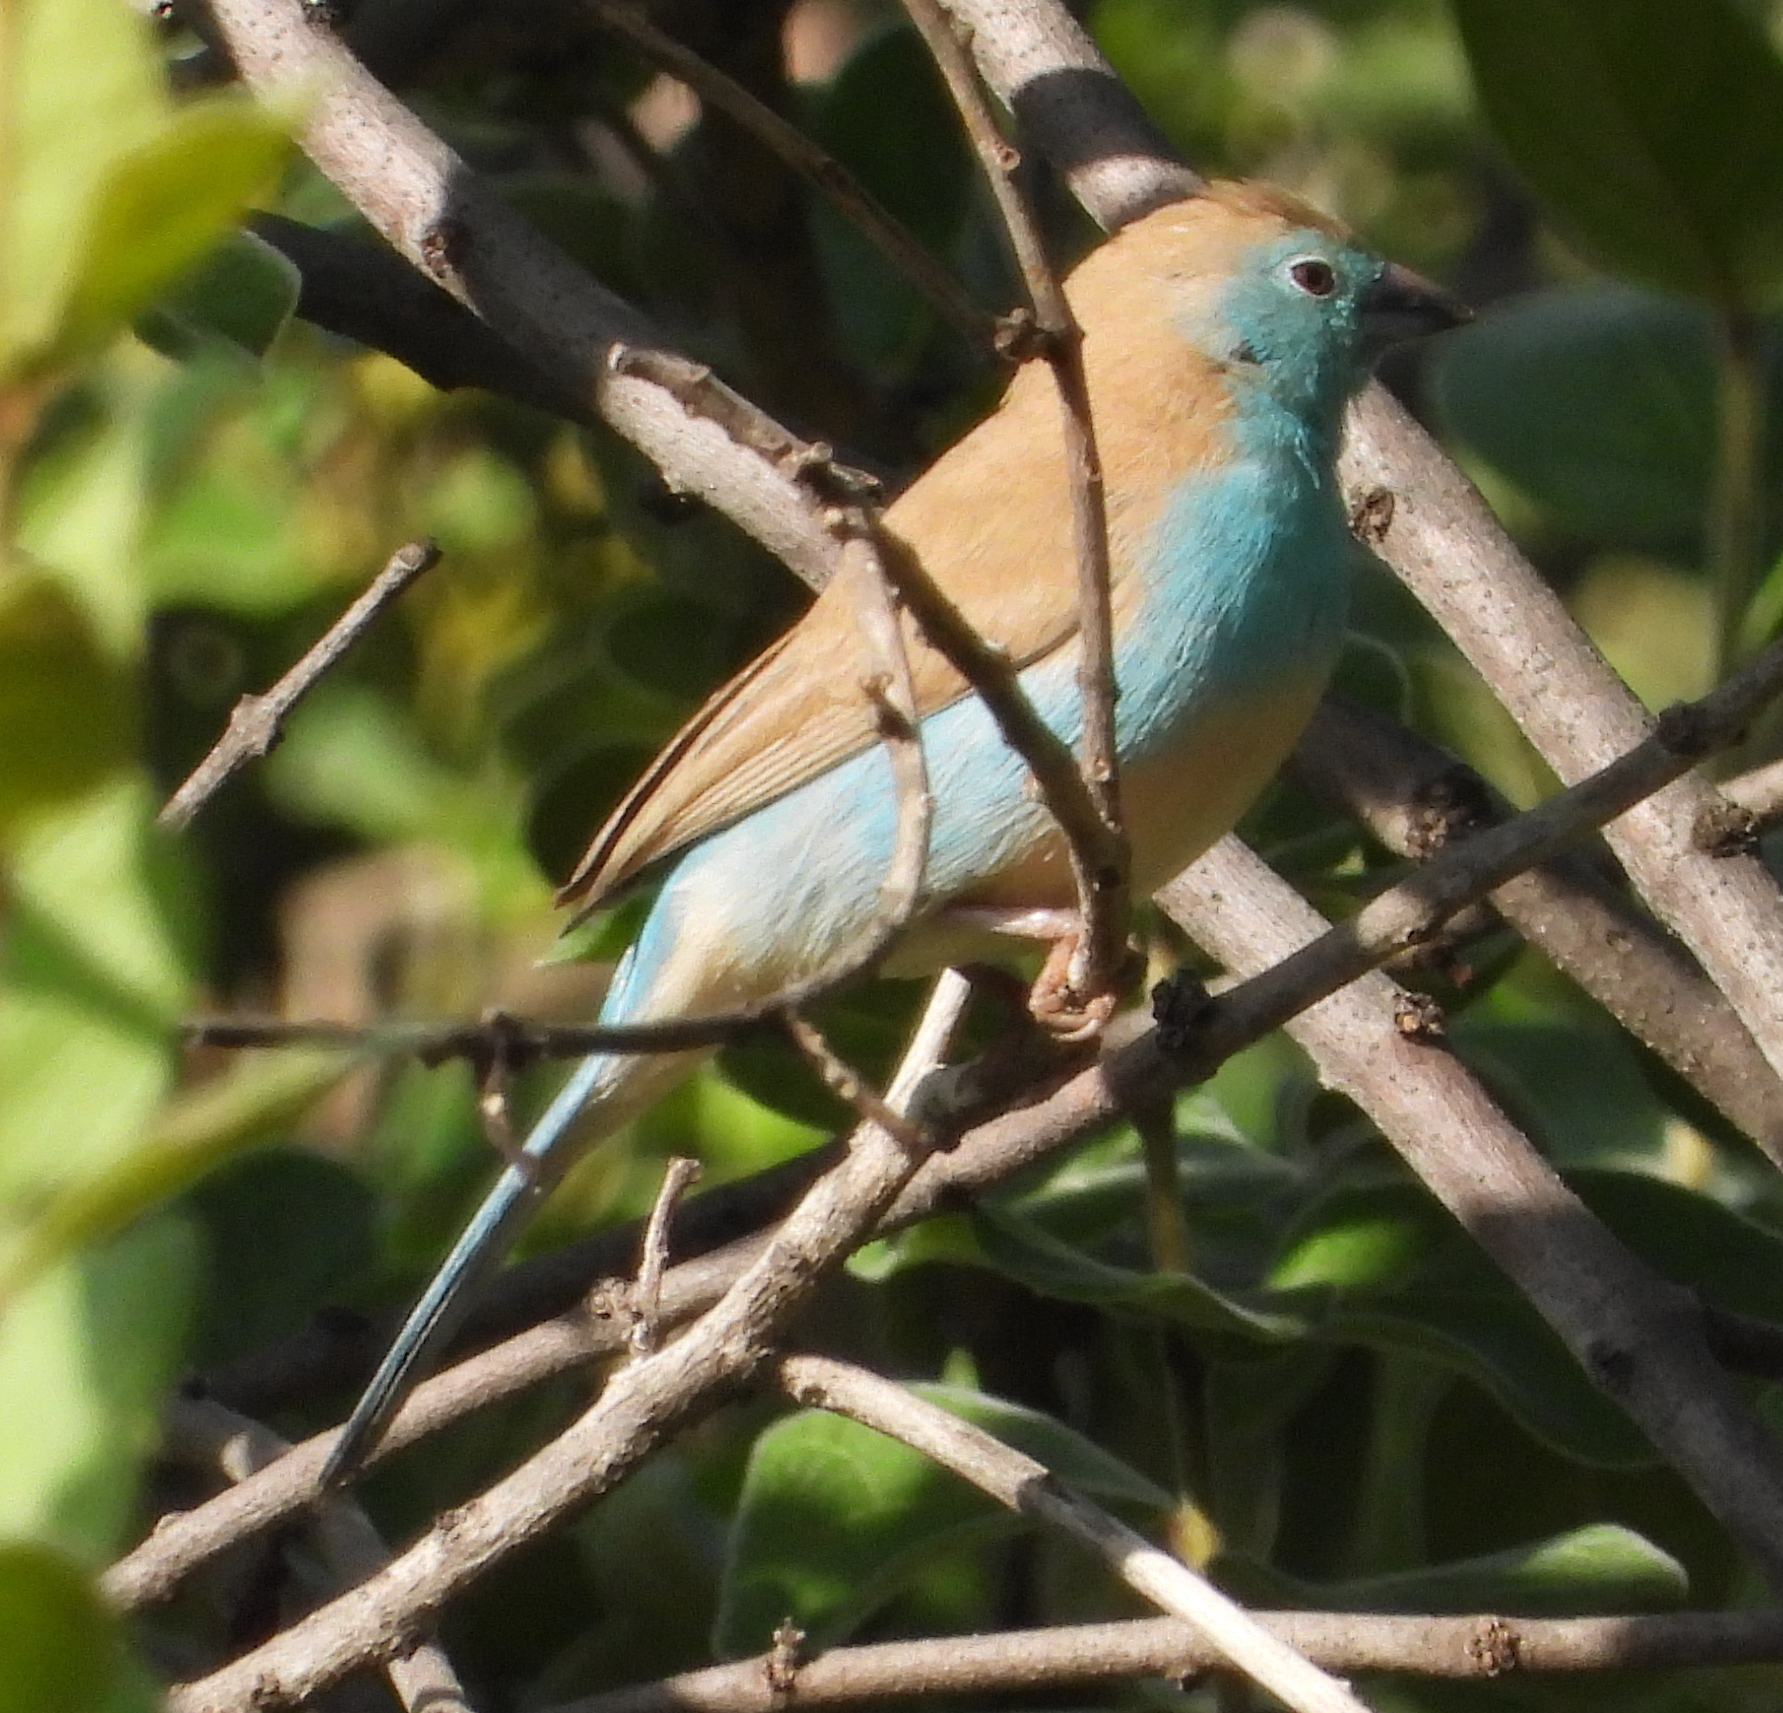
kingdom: Animalia
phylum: Chordata
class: Aves
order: Passeriformes
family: Estrildidae
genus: Uraeginthus
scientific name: Uraeginthus angolensis
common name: Blue waxbill
